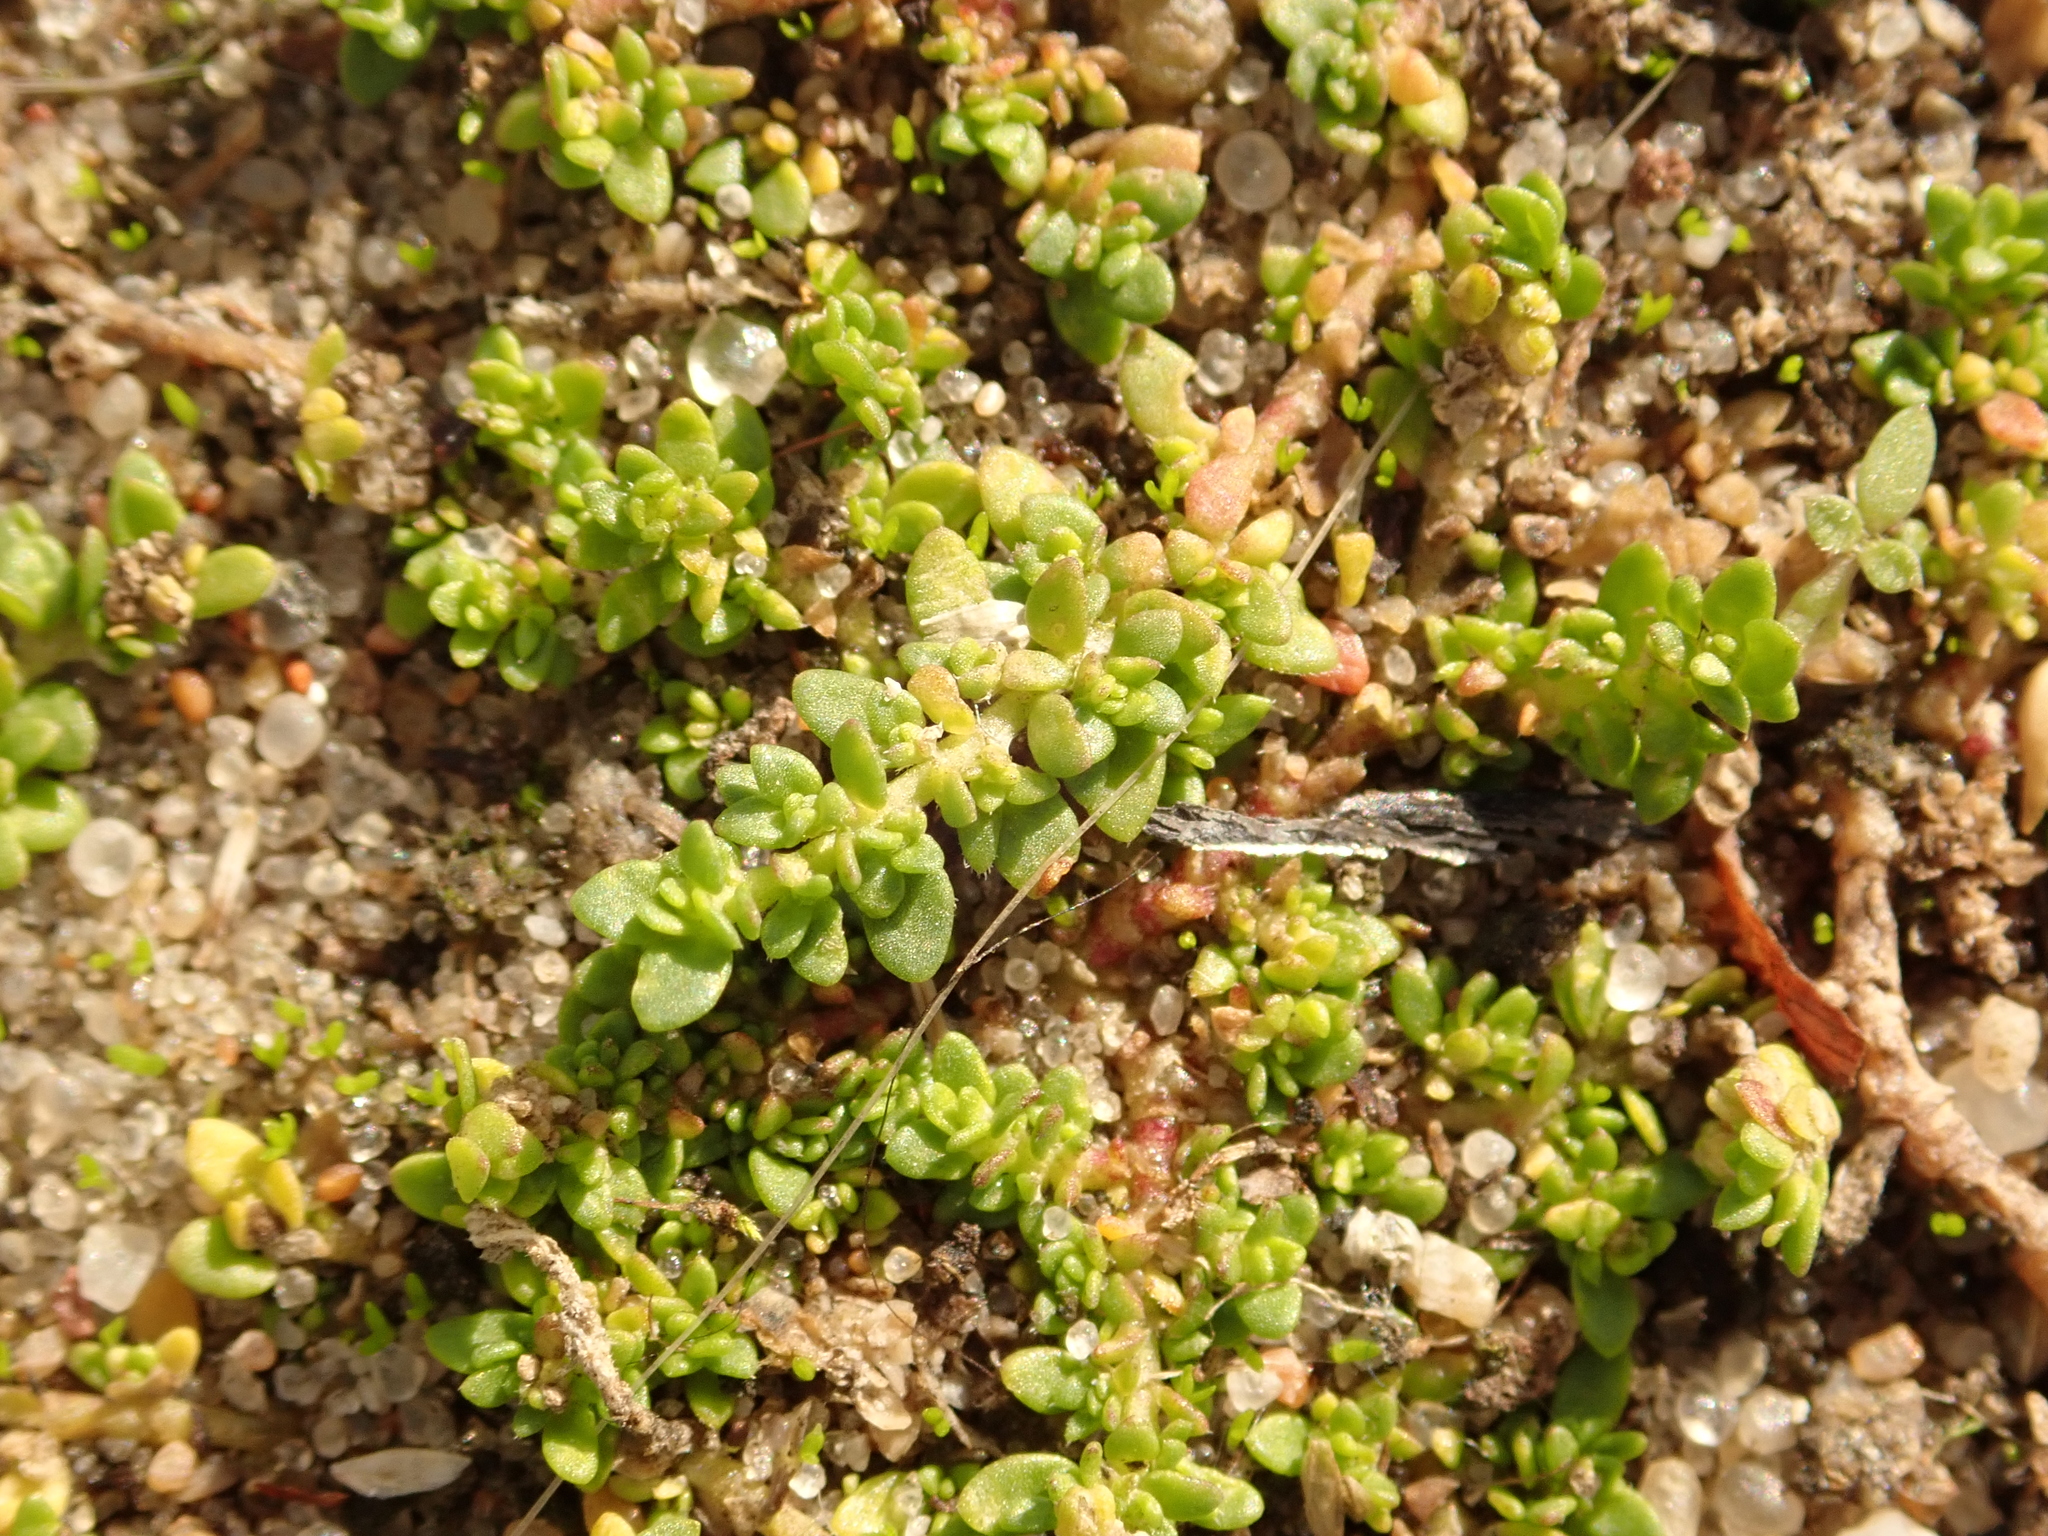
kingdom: Plantae
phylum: Tracheophyta
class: Magnoliopsida
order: Caryophyllales
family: Caryophyllaceae
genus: Herniaria
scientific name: Herniaria glabra
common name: Smooth rupturewort
